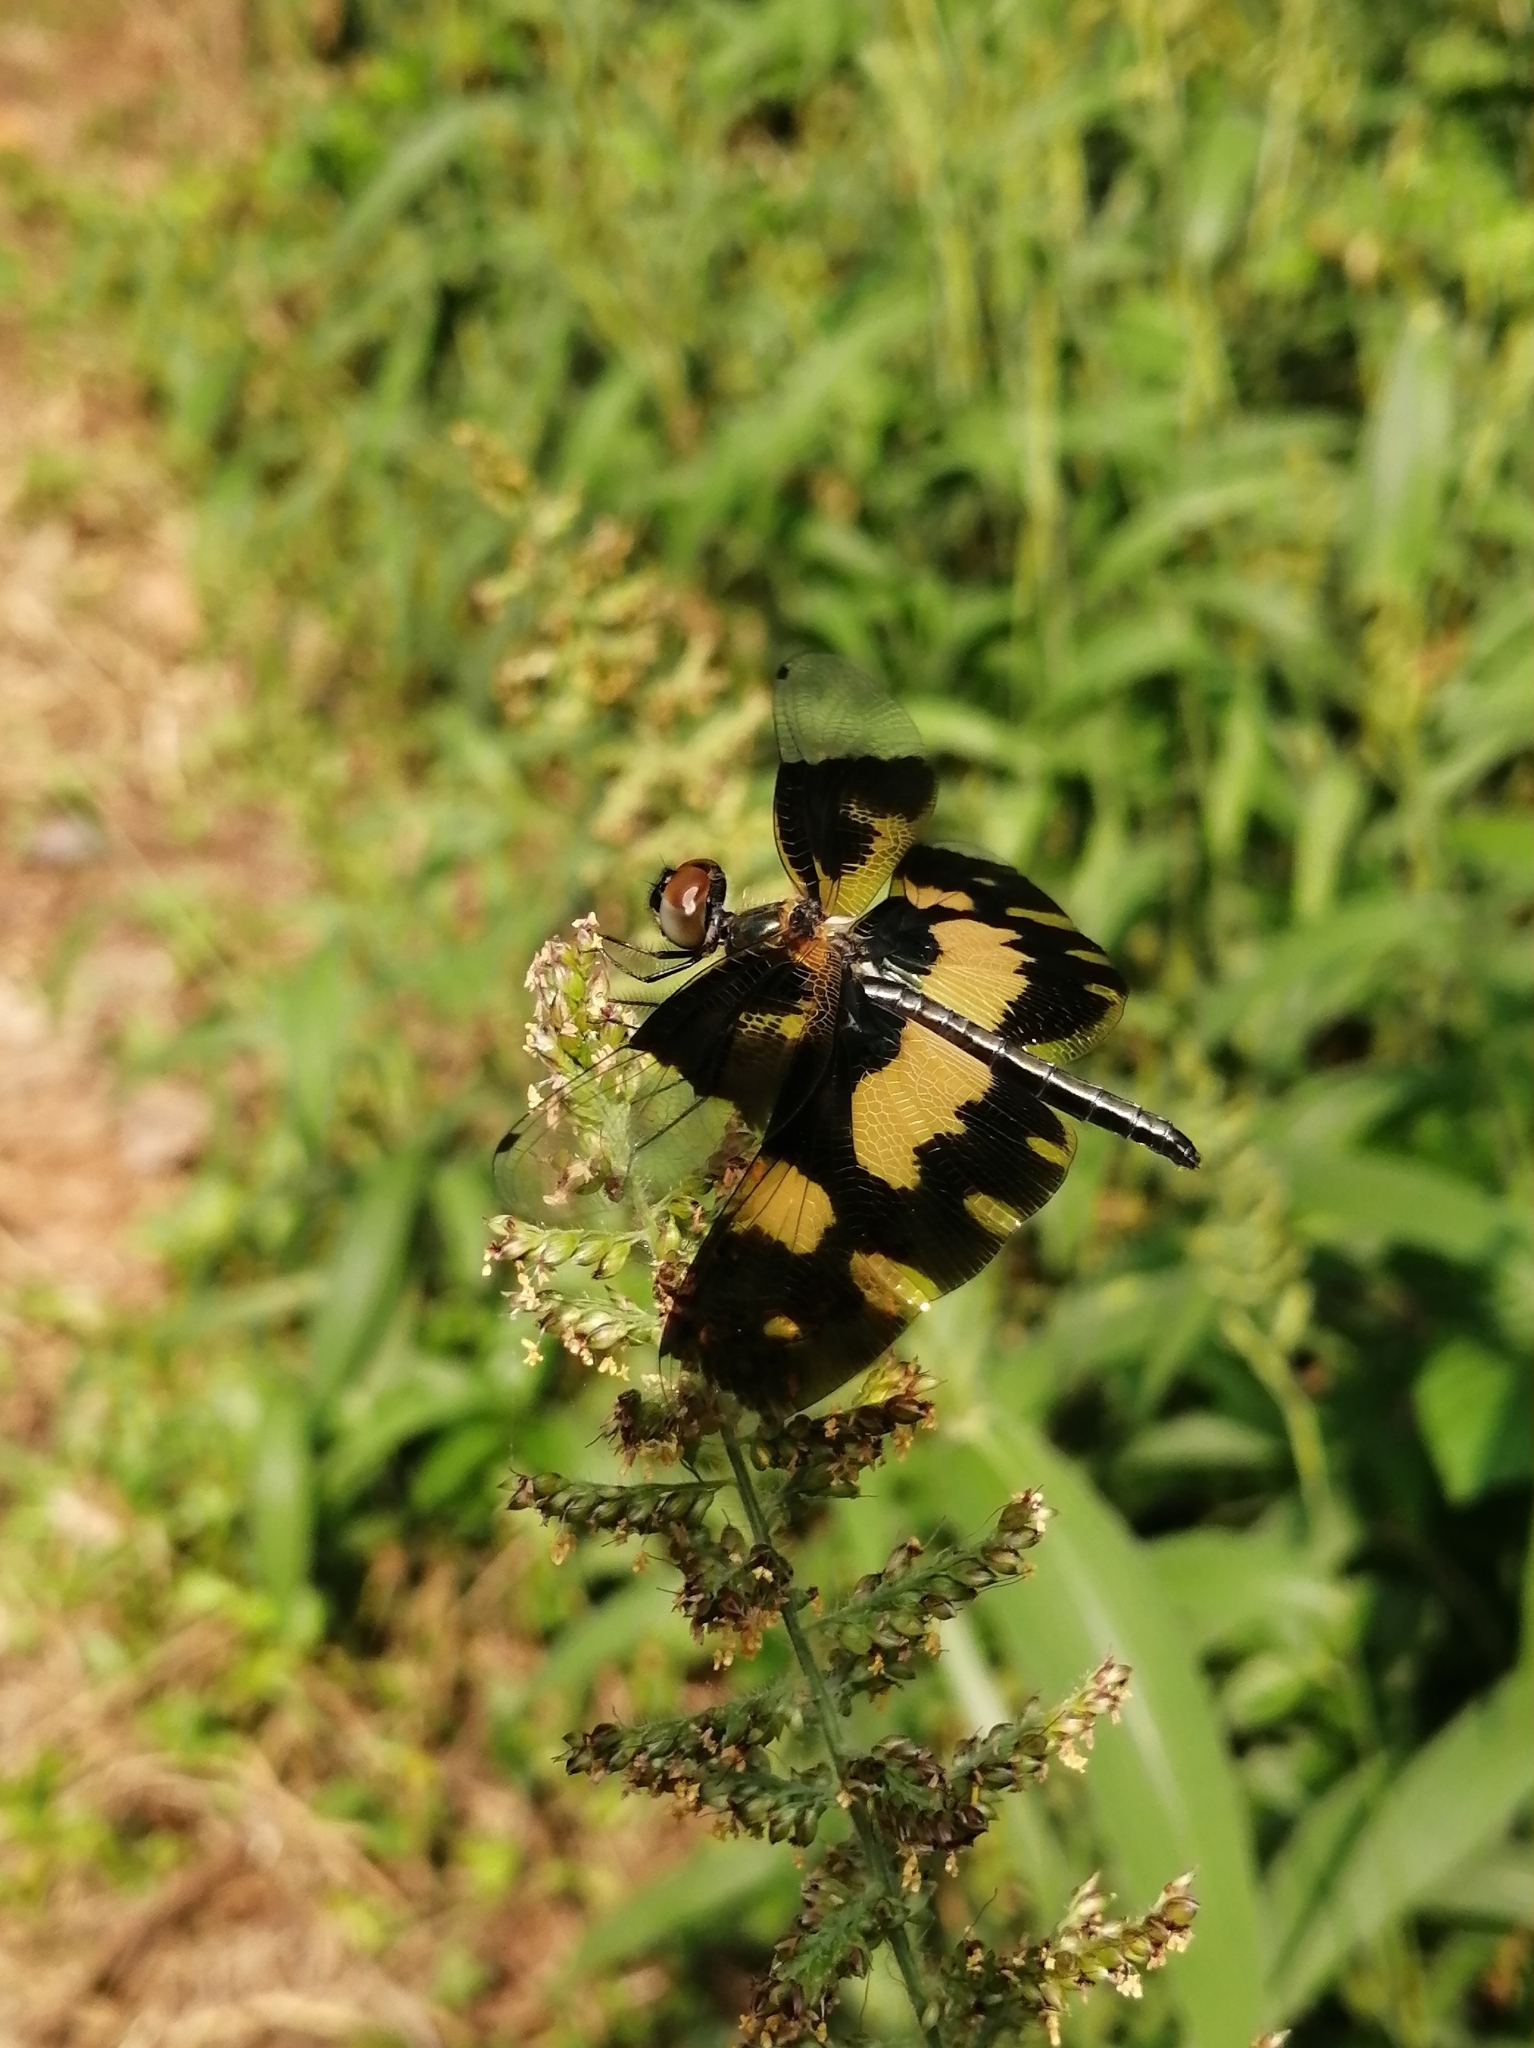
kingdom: Animalia
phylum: Arthropoda
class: Insecta
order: Odonata
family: Libellulidae
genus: Rhyothemis
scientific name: Rhyothemis variegata
